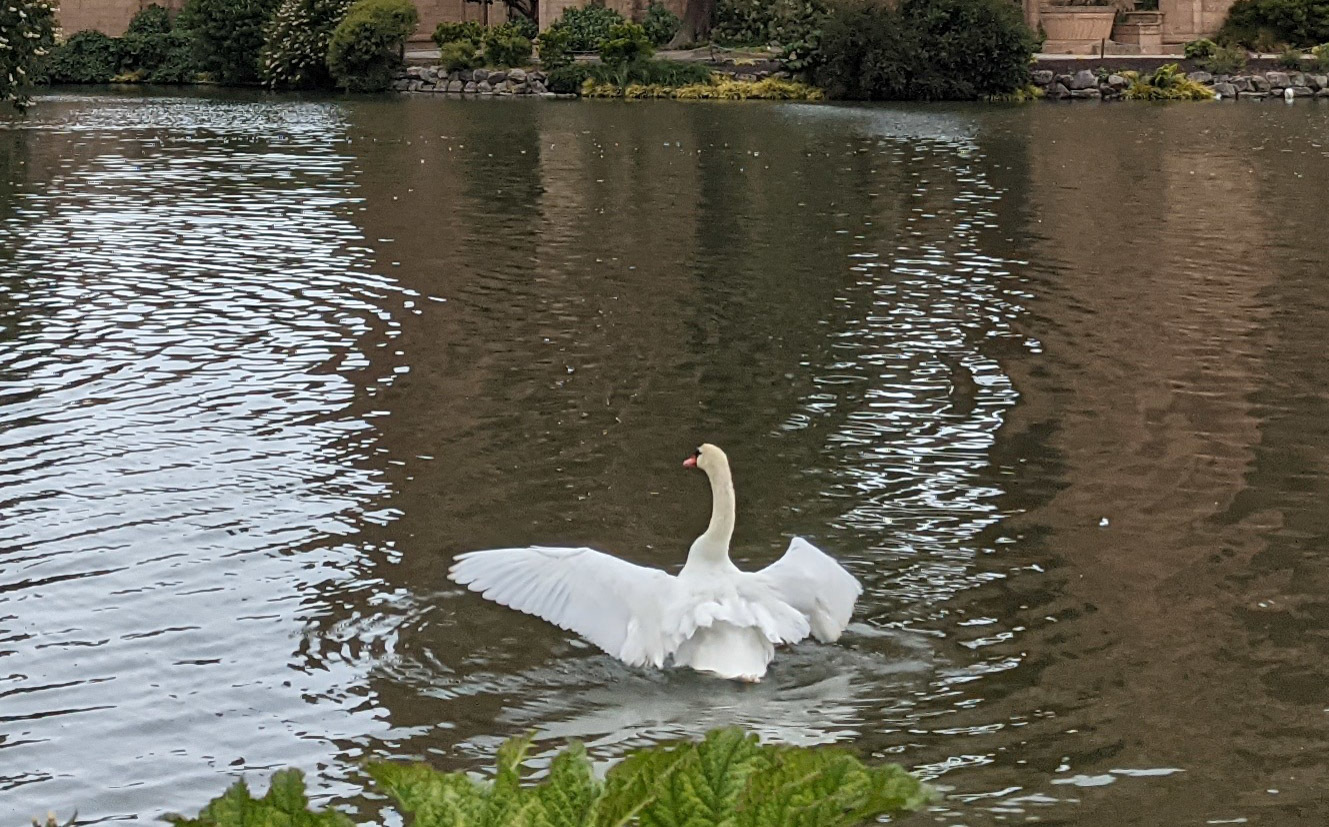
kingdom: Animalia
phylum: Chordata
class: Aves
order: Anseriformes
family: Anatidae
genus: Cygnus
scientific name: Cygnus olor
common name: Mute swan
